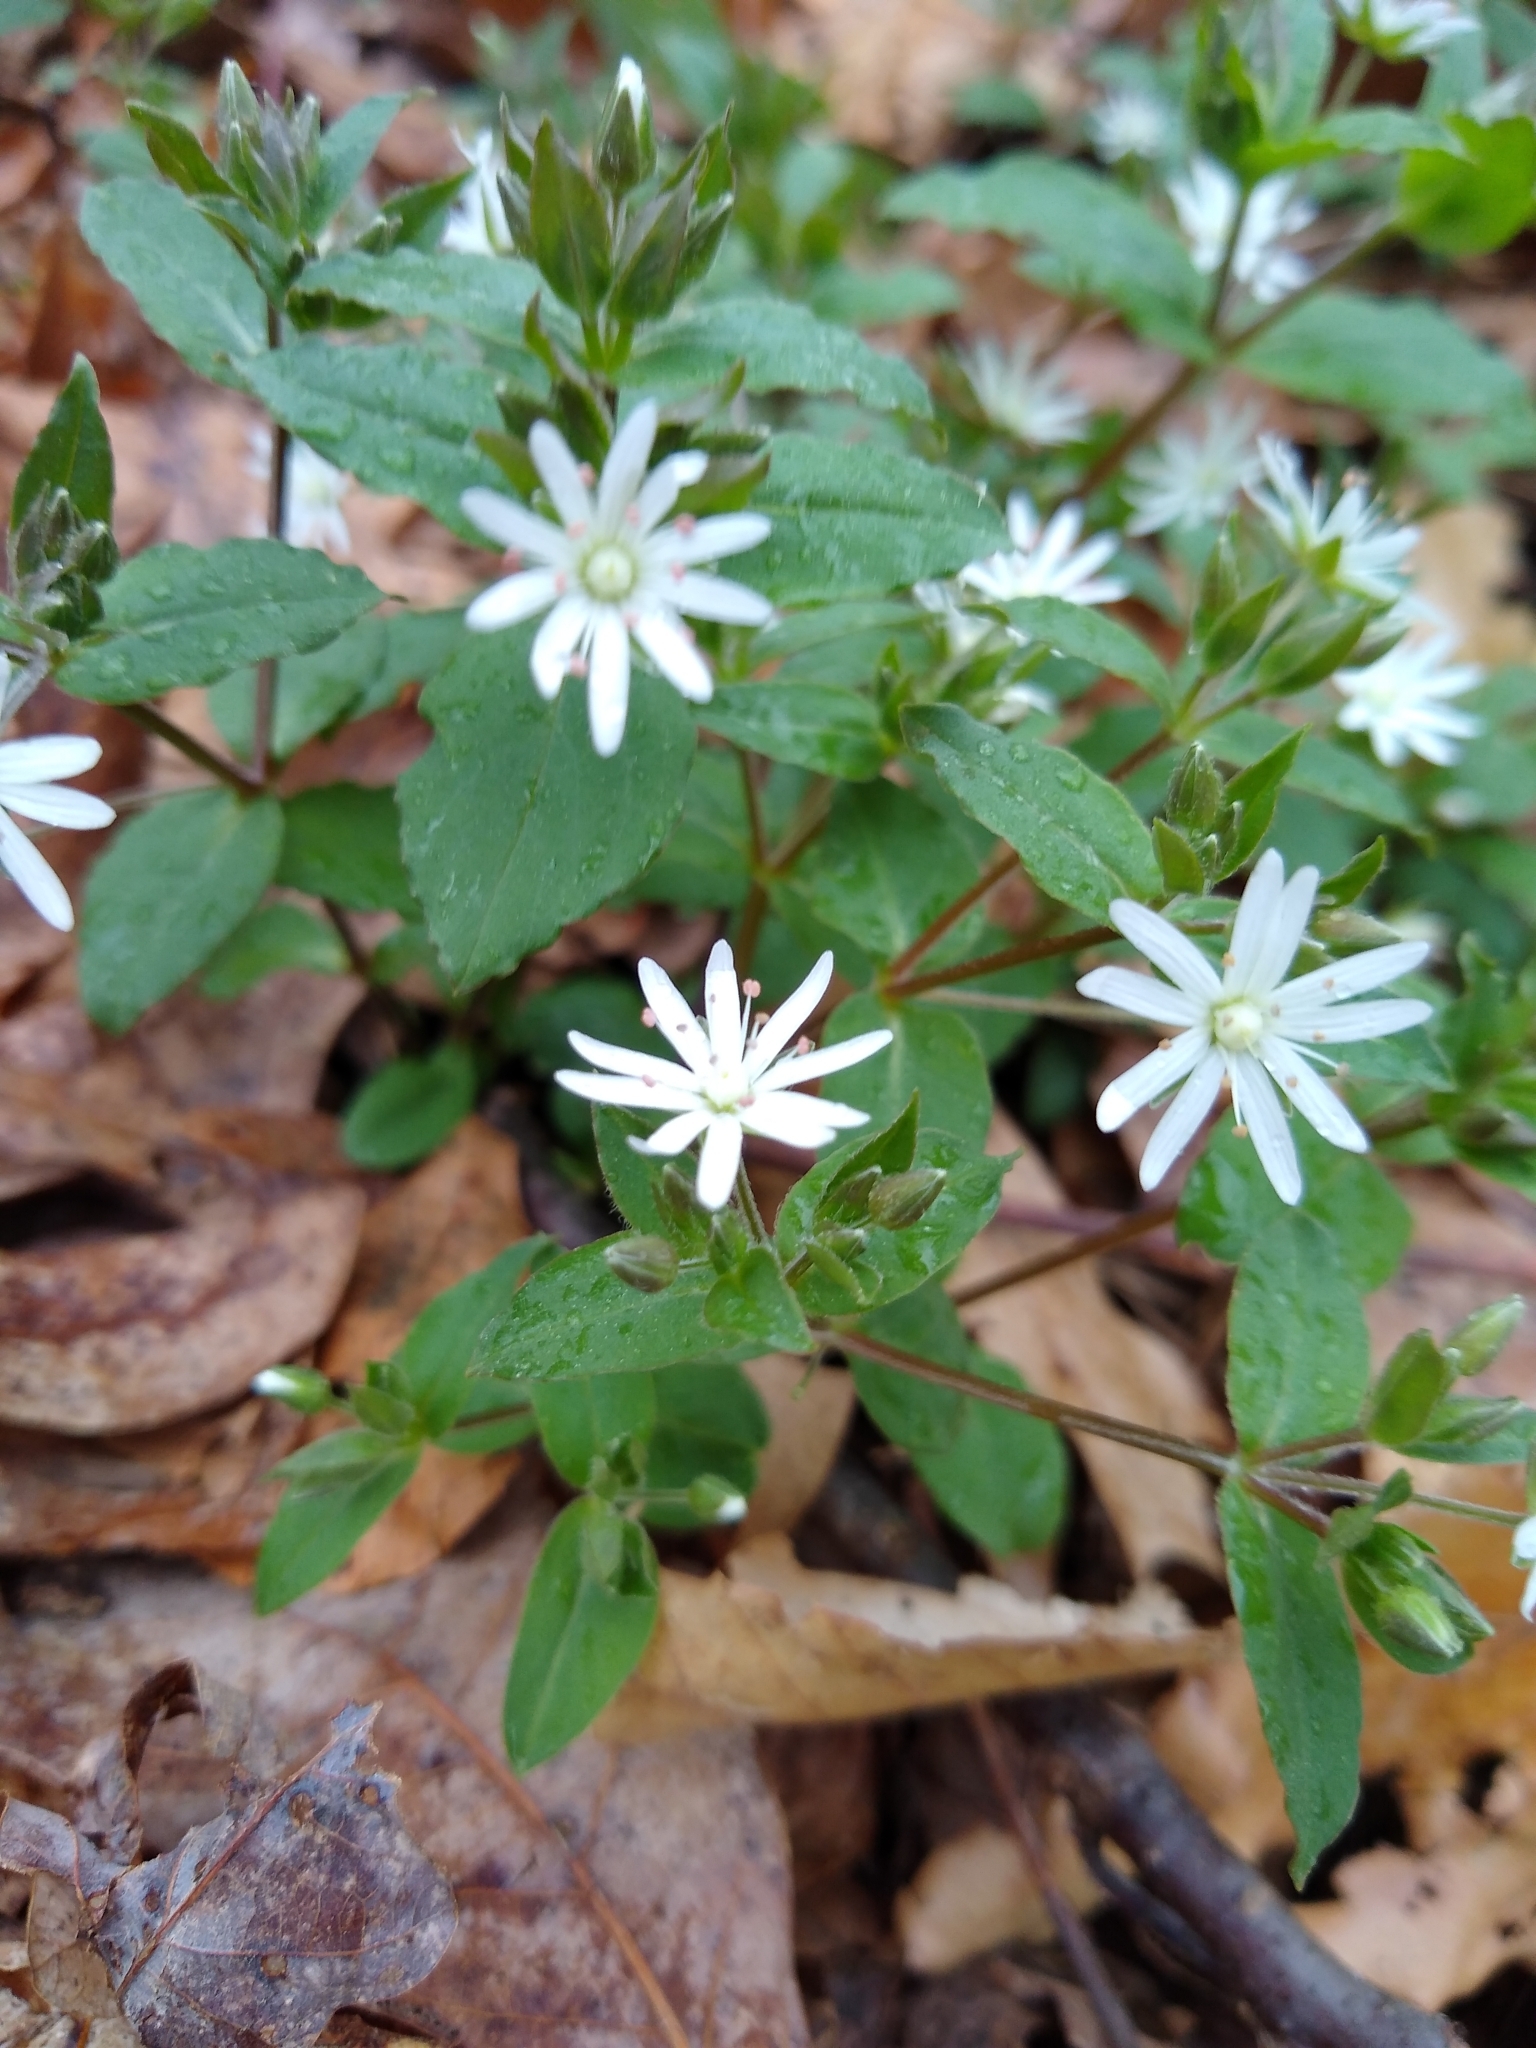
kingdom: Plantae
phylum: Tracheophyta
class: Magnoliopsida
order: Caryophyllales
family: Caryophyllaceae
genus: Stellaria
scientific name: Stellaria pubera
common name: Star chickweed
